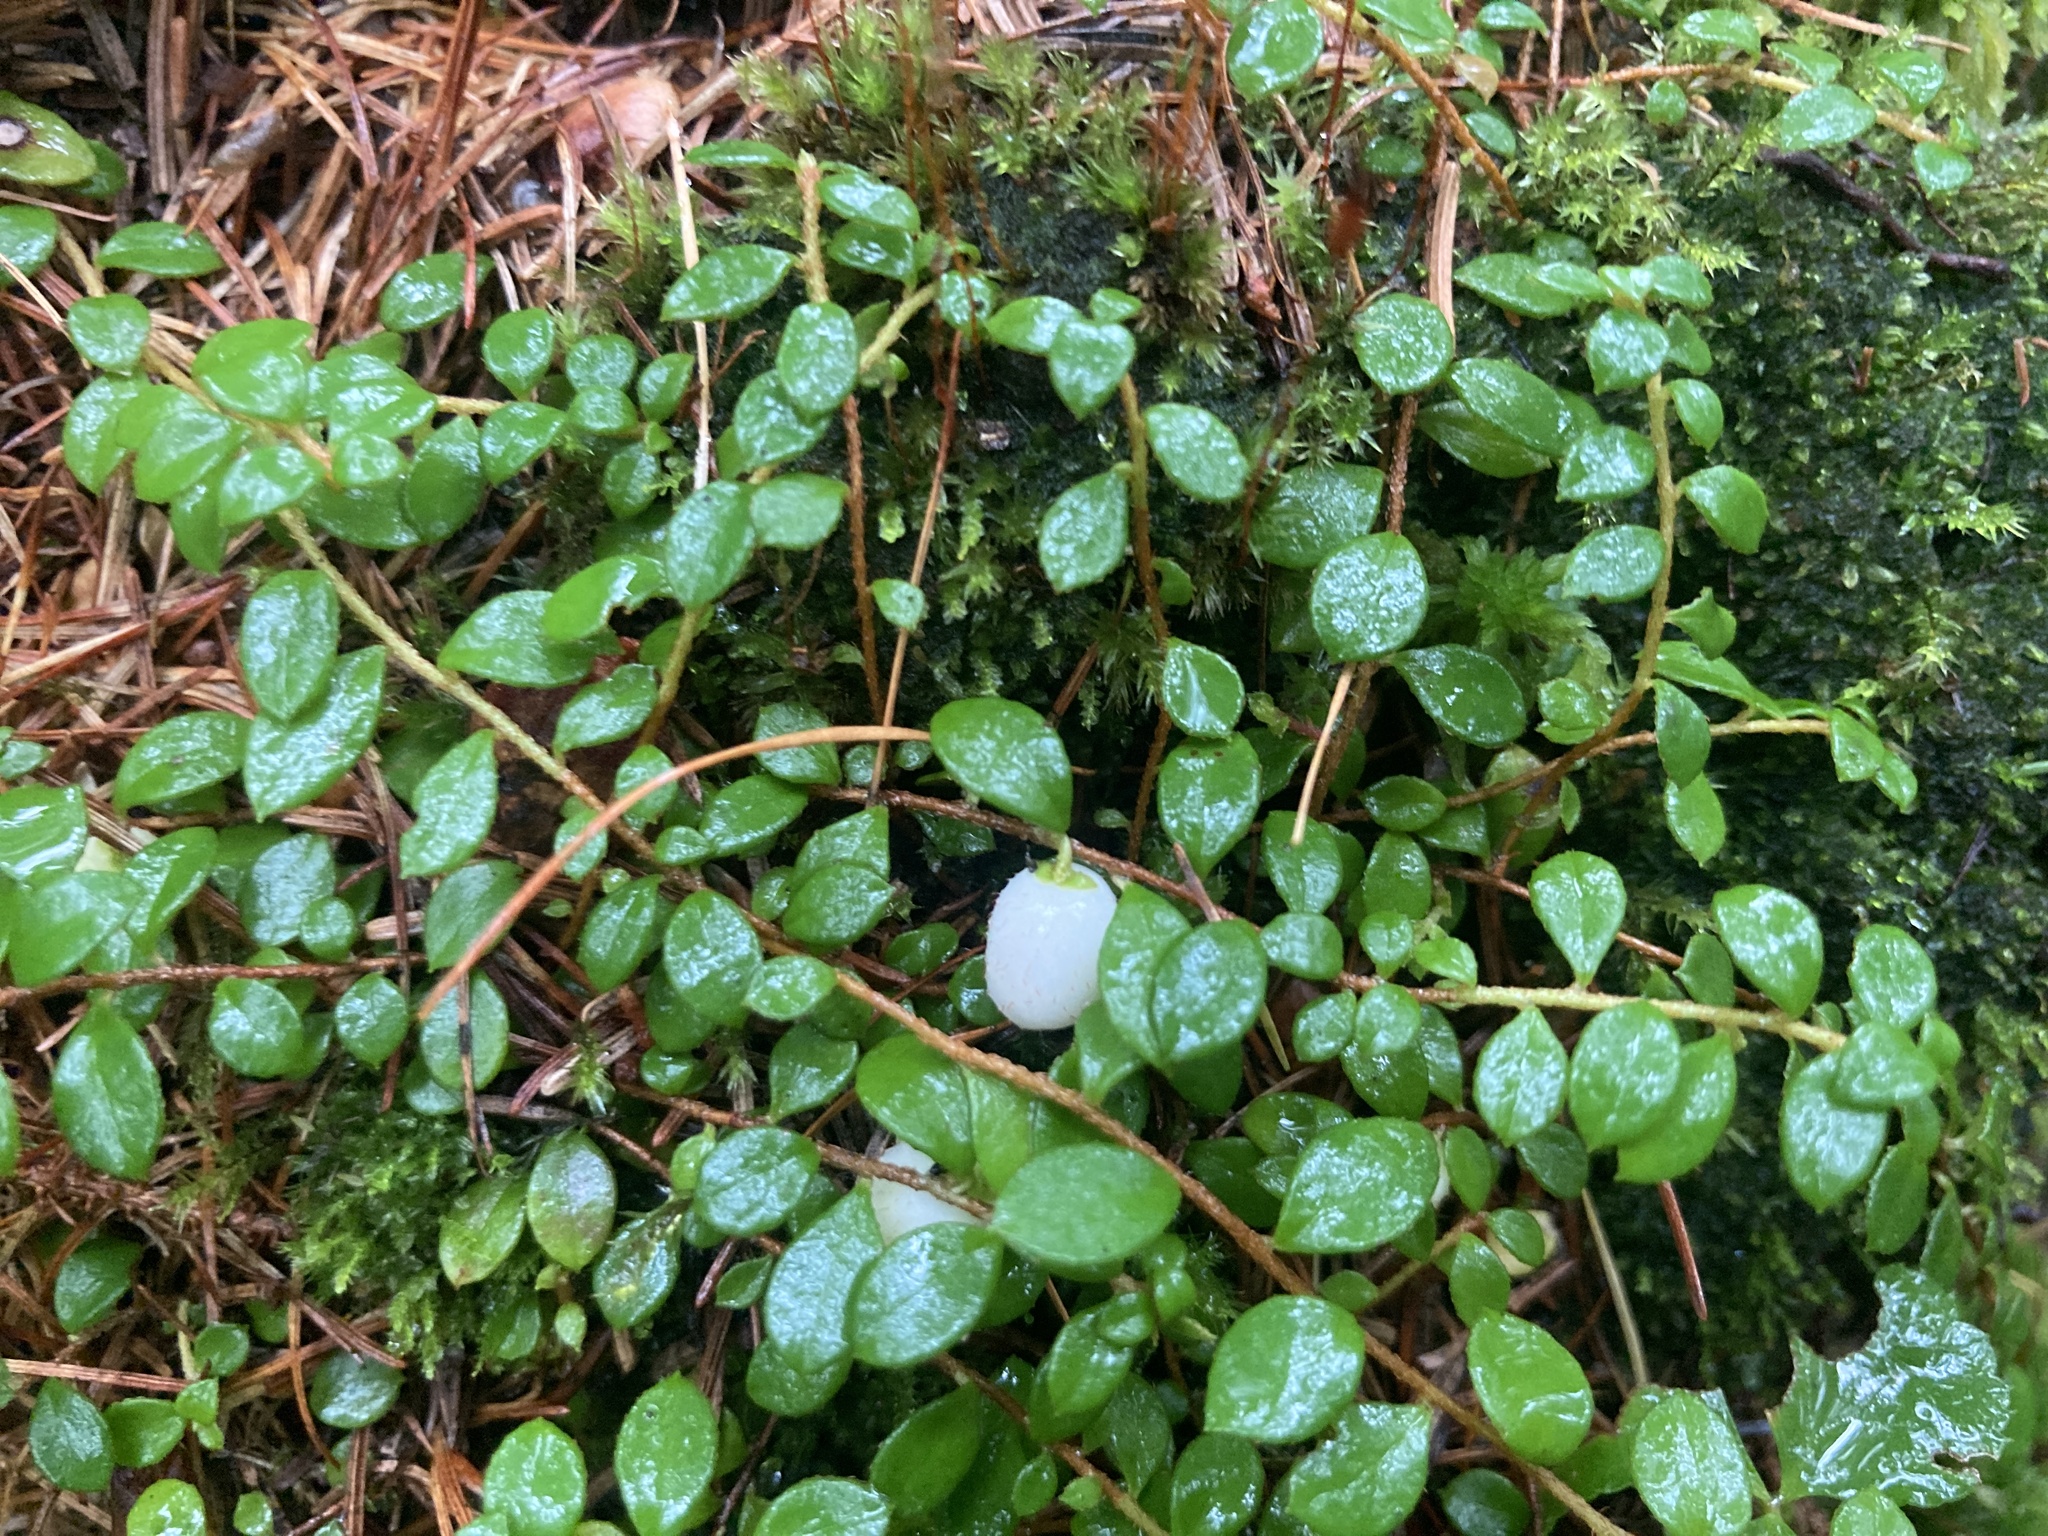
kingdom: Plantae
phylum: Tracheophyta
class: Magnoliopsida
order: Ericales
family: Ericaceae
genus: Gaultheria
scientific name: Gaultheria hispidula
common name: Cancer wintergreen
